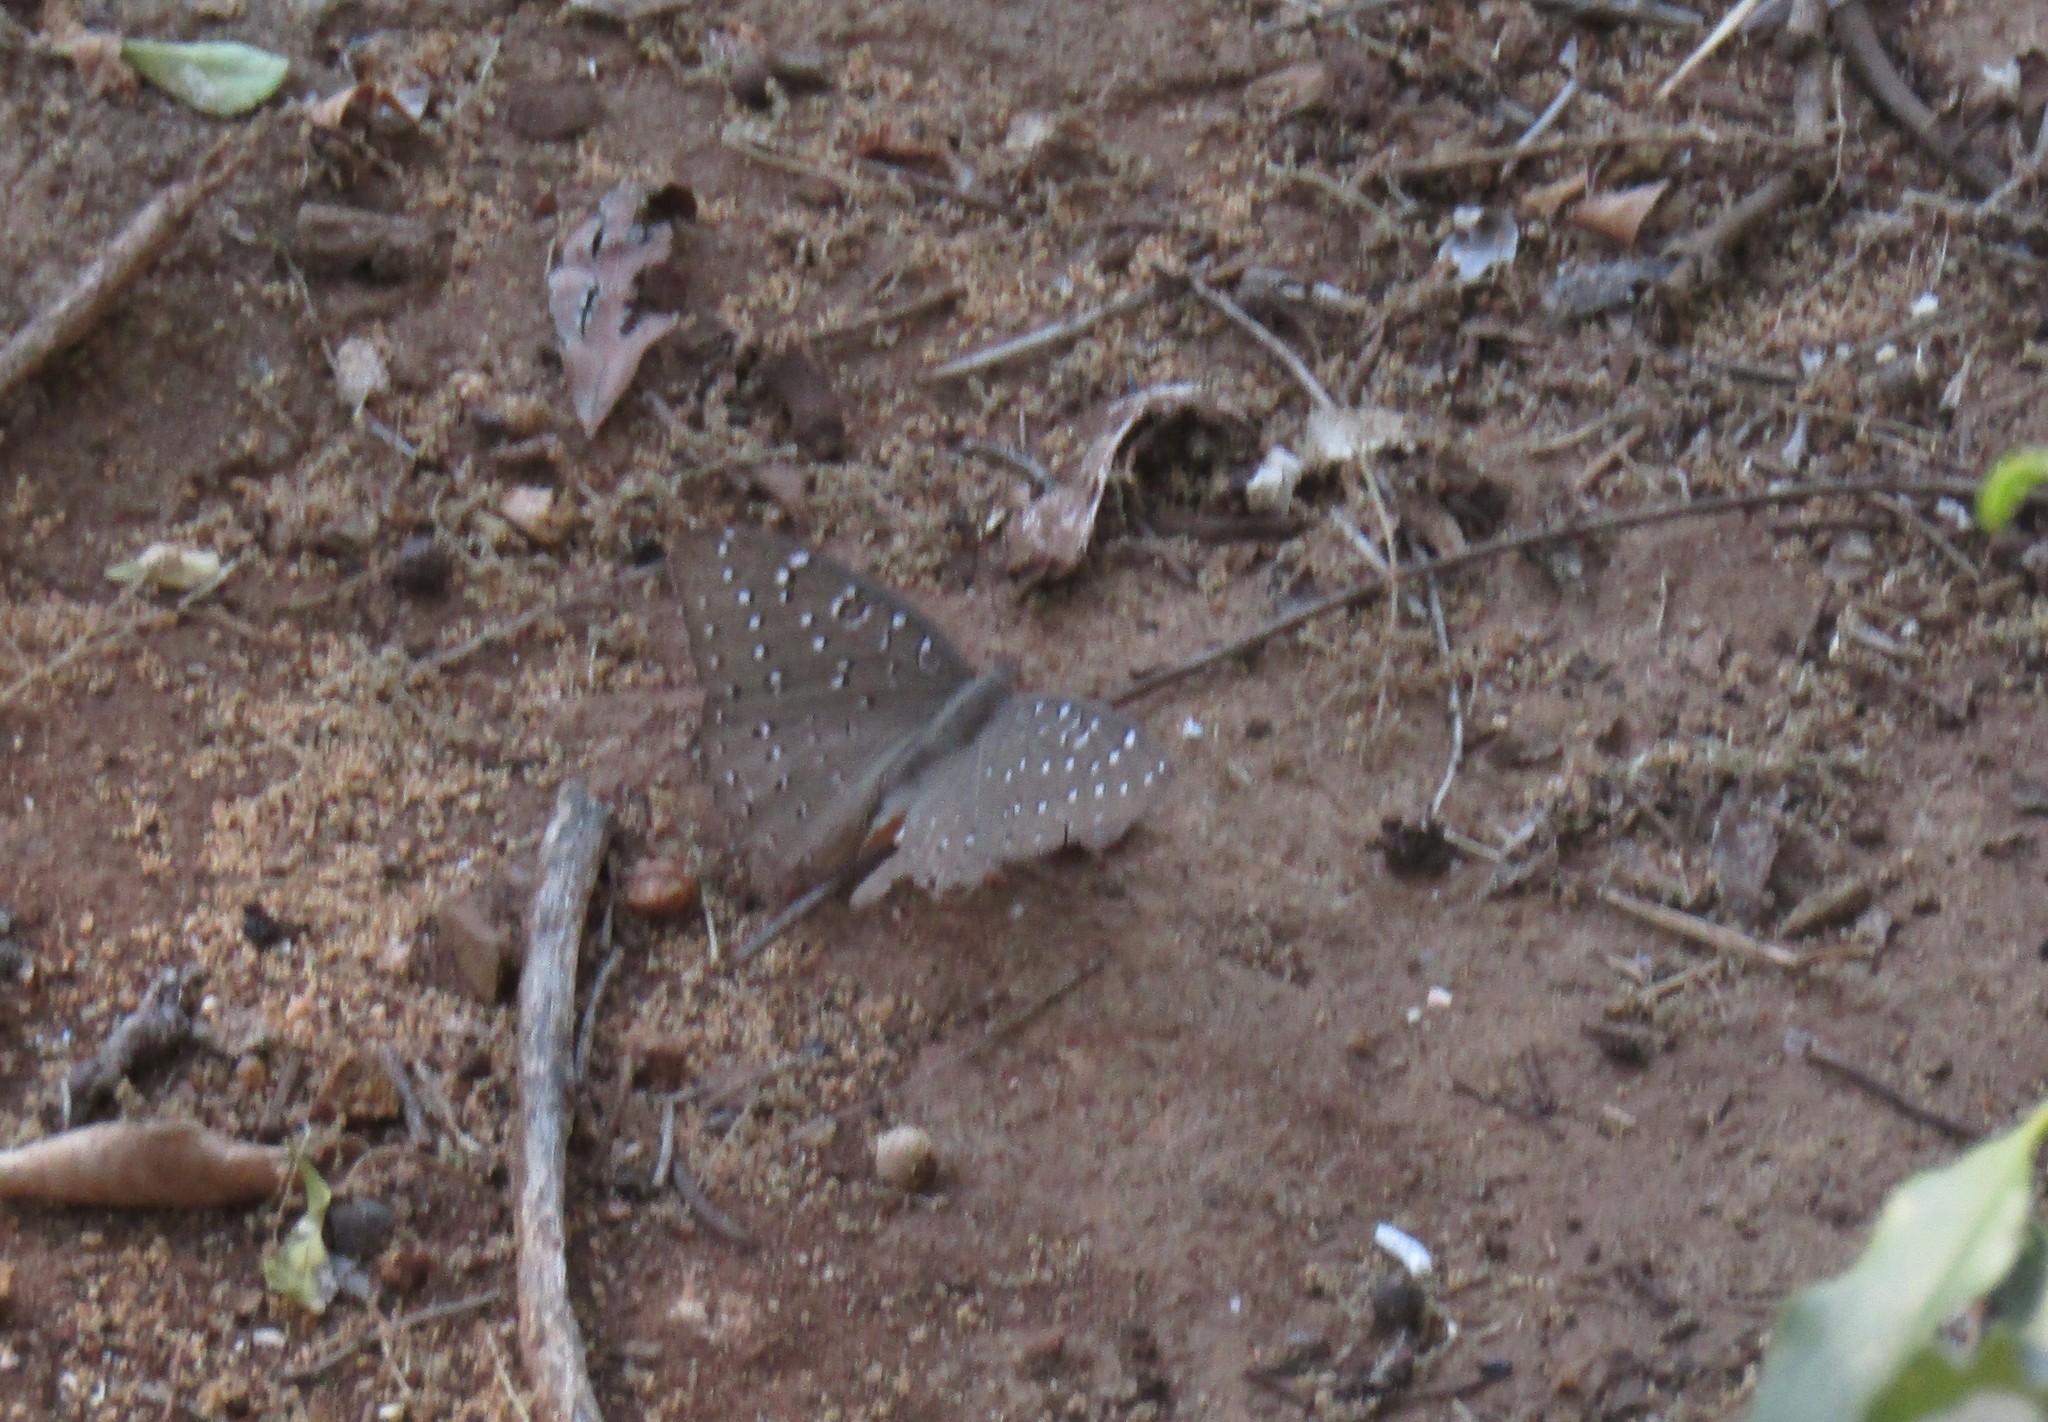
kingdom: Animalia
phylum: Arthropoda
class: Insecta
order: Lepidoptera
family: Nymphalidae
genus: Hamanumida
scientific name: Hamanumida daedalus
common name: Guinea-fowl butterfly
